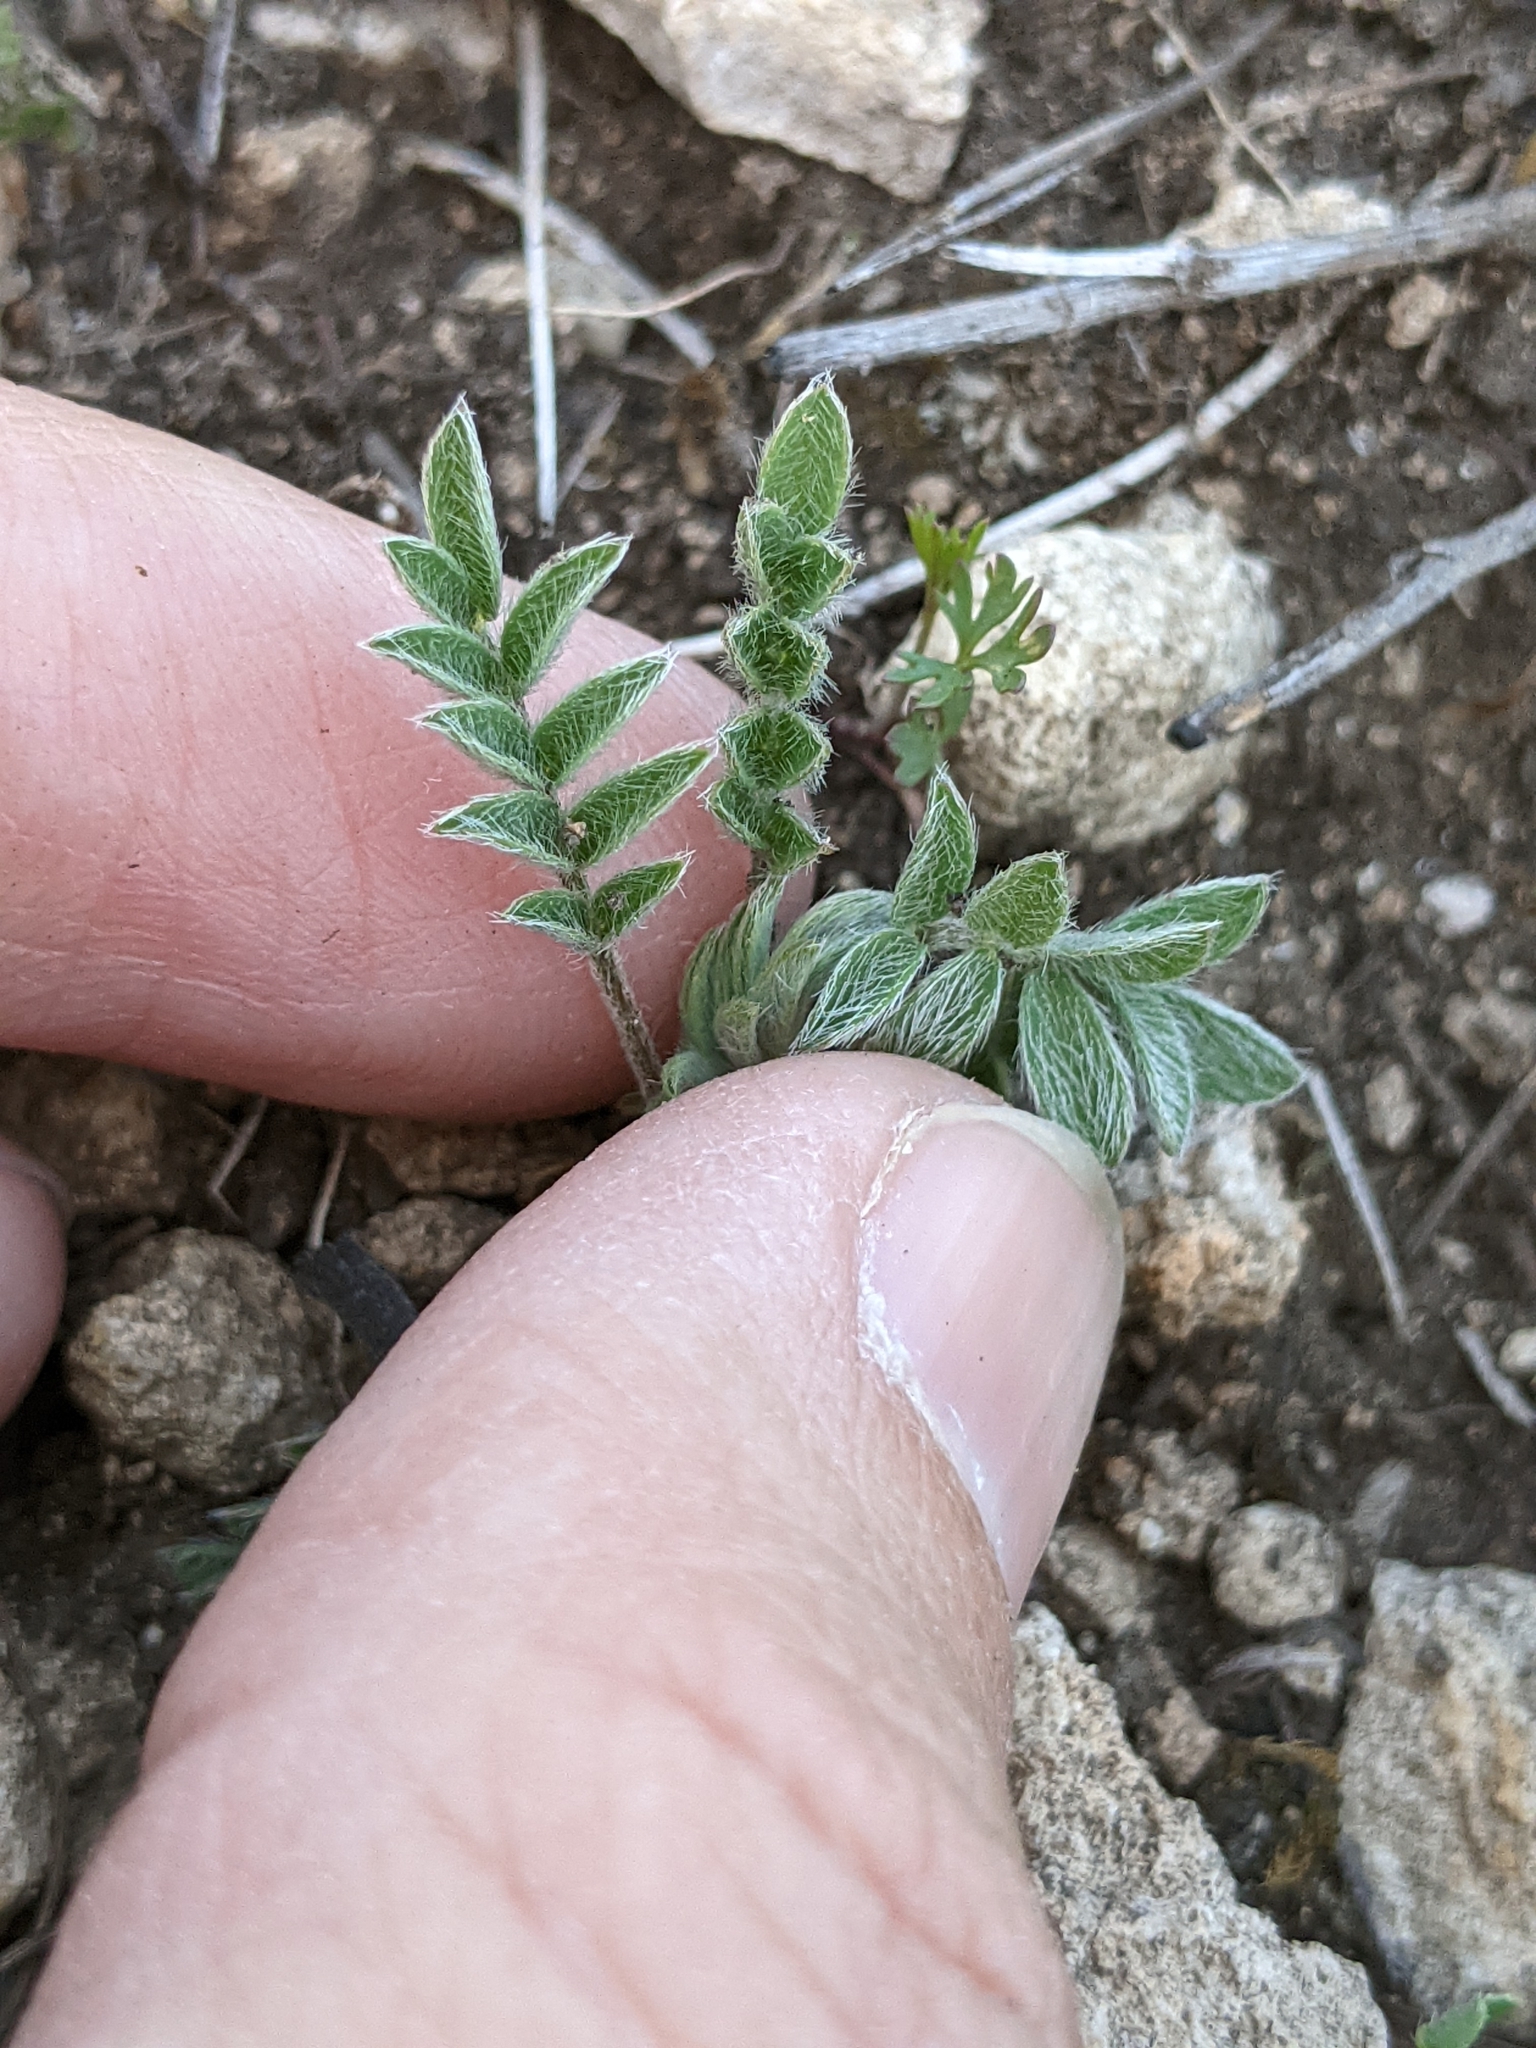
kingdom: Plantae
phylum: Tracheophyta
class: Magnoliopsida
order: Fabales
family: Fabaceae
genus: Astragalus
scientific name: Astragalus nuttallianus
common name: Smallflowered milkvetch
